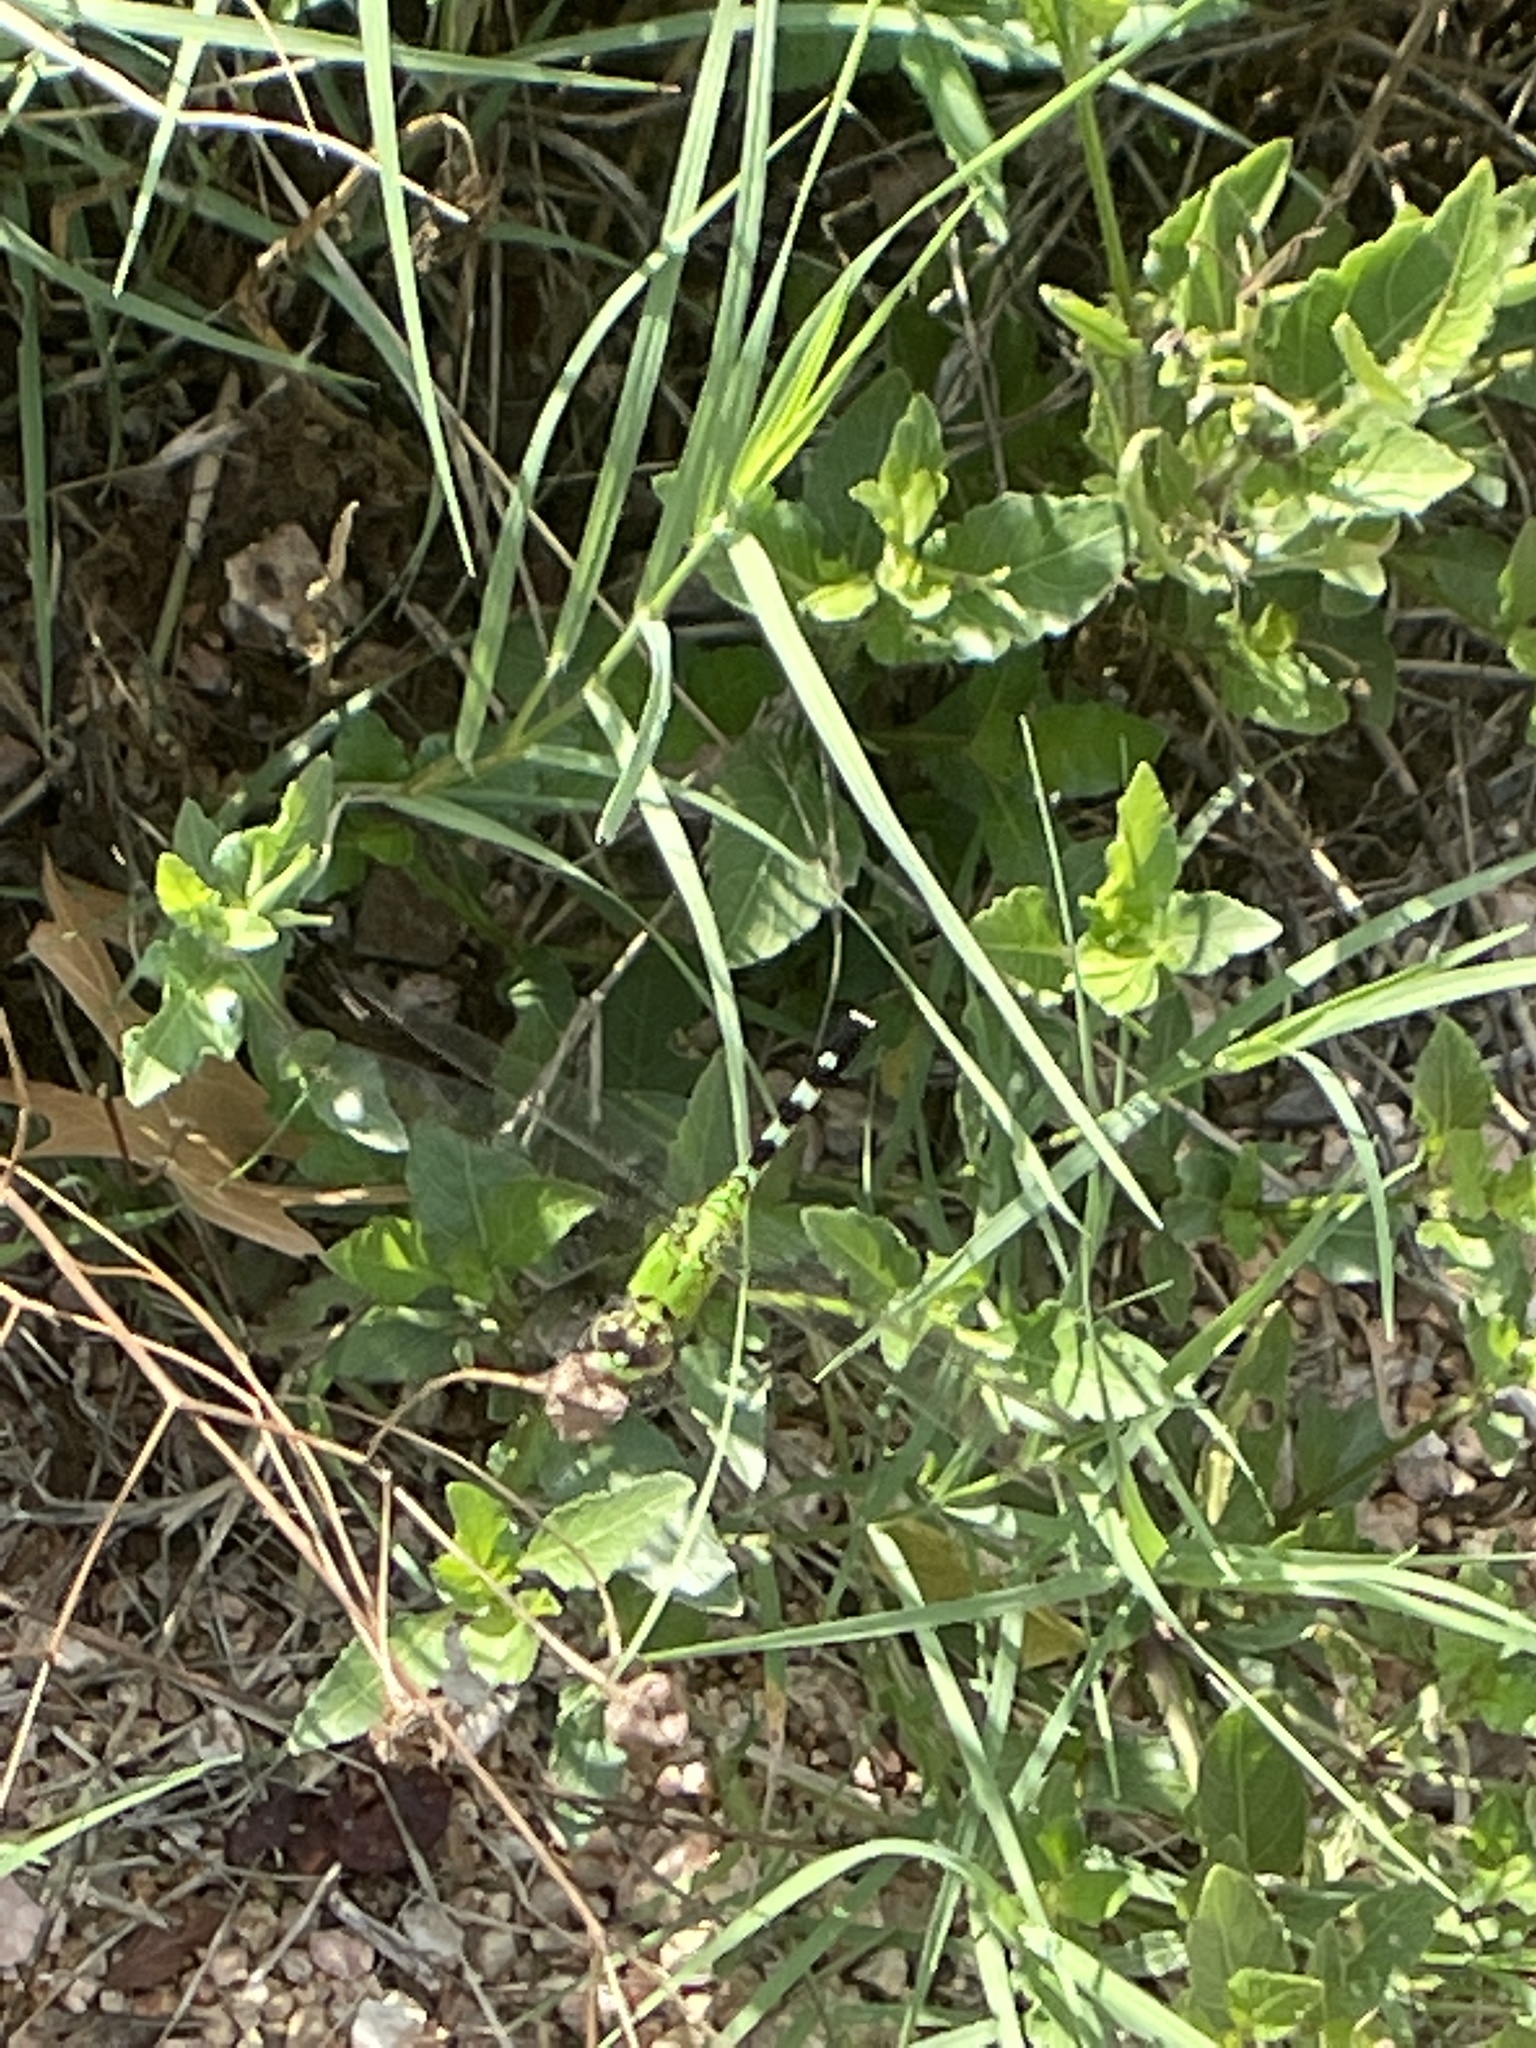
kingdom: Animalia
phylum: Arthropoda
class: Insecta
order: Odonata
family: Libellulidae
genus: Erythemis
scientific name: Erythemis simplicicollis
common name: Eastern pondhawk
